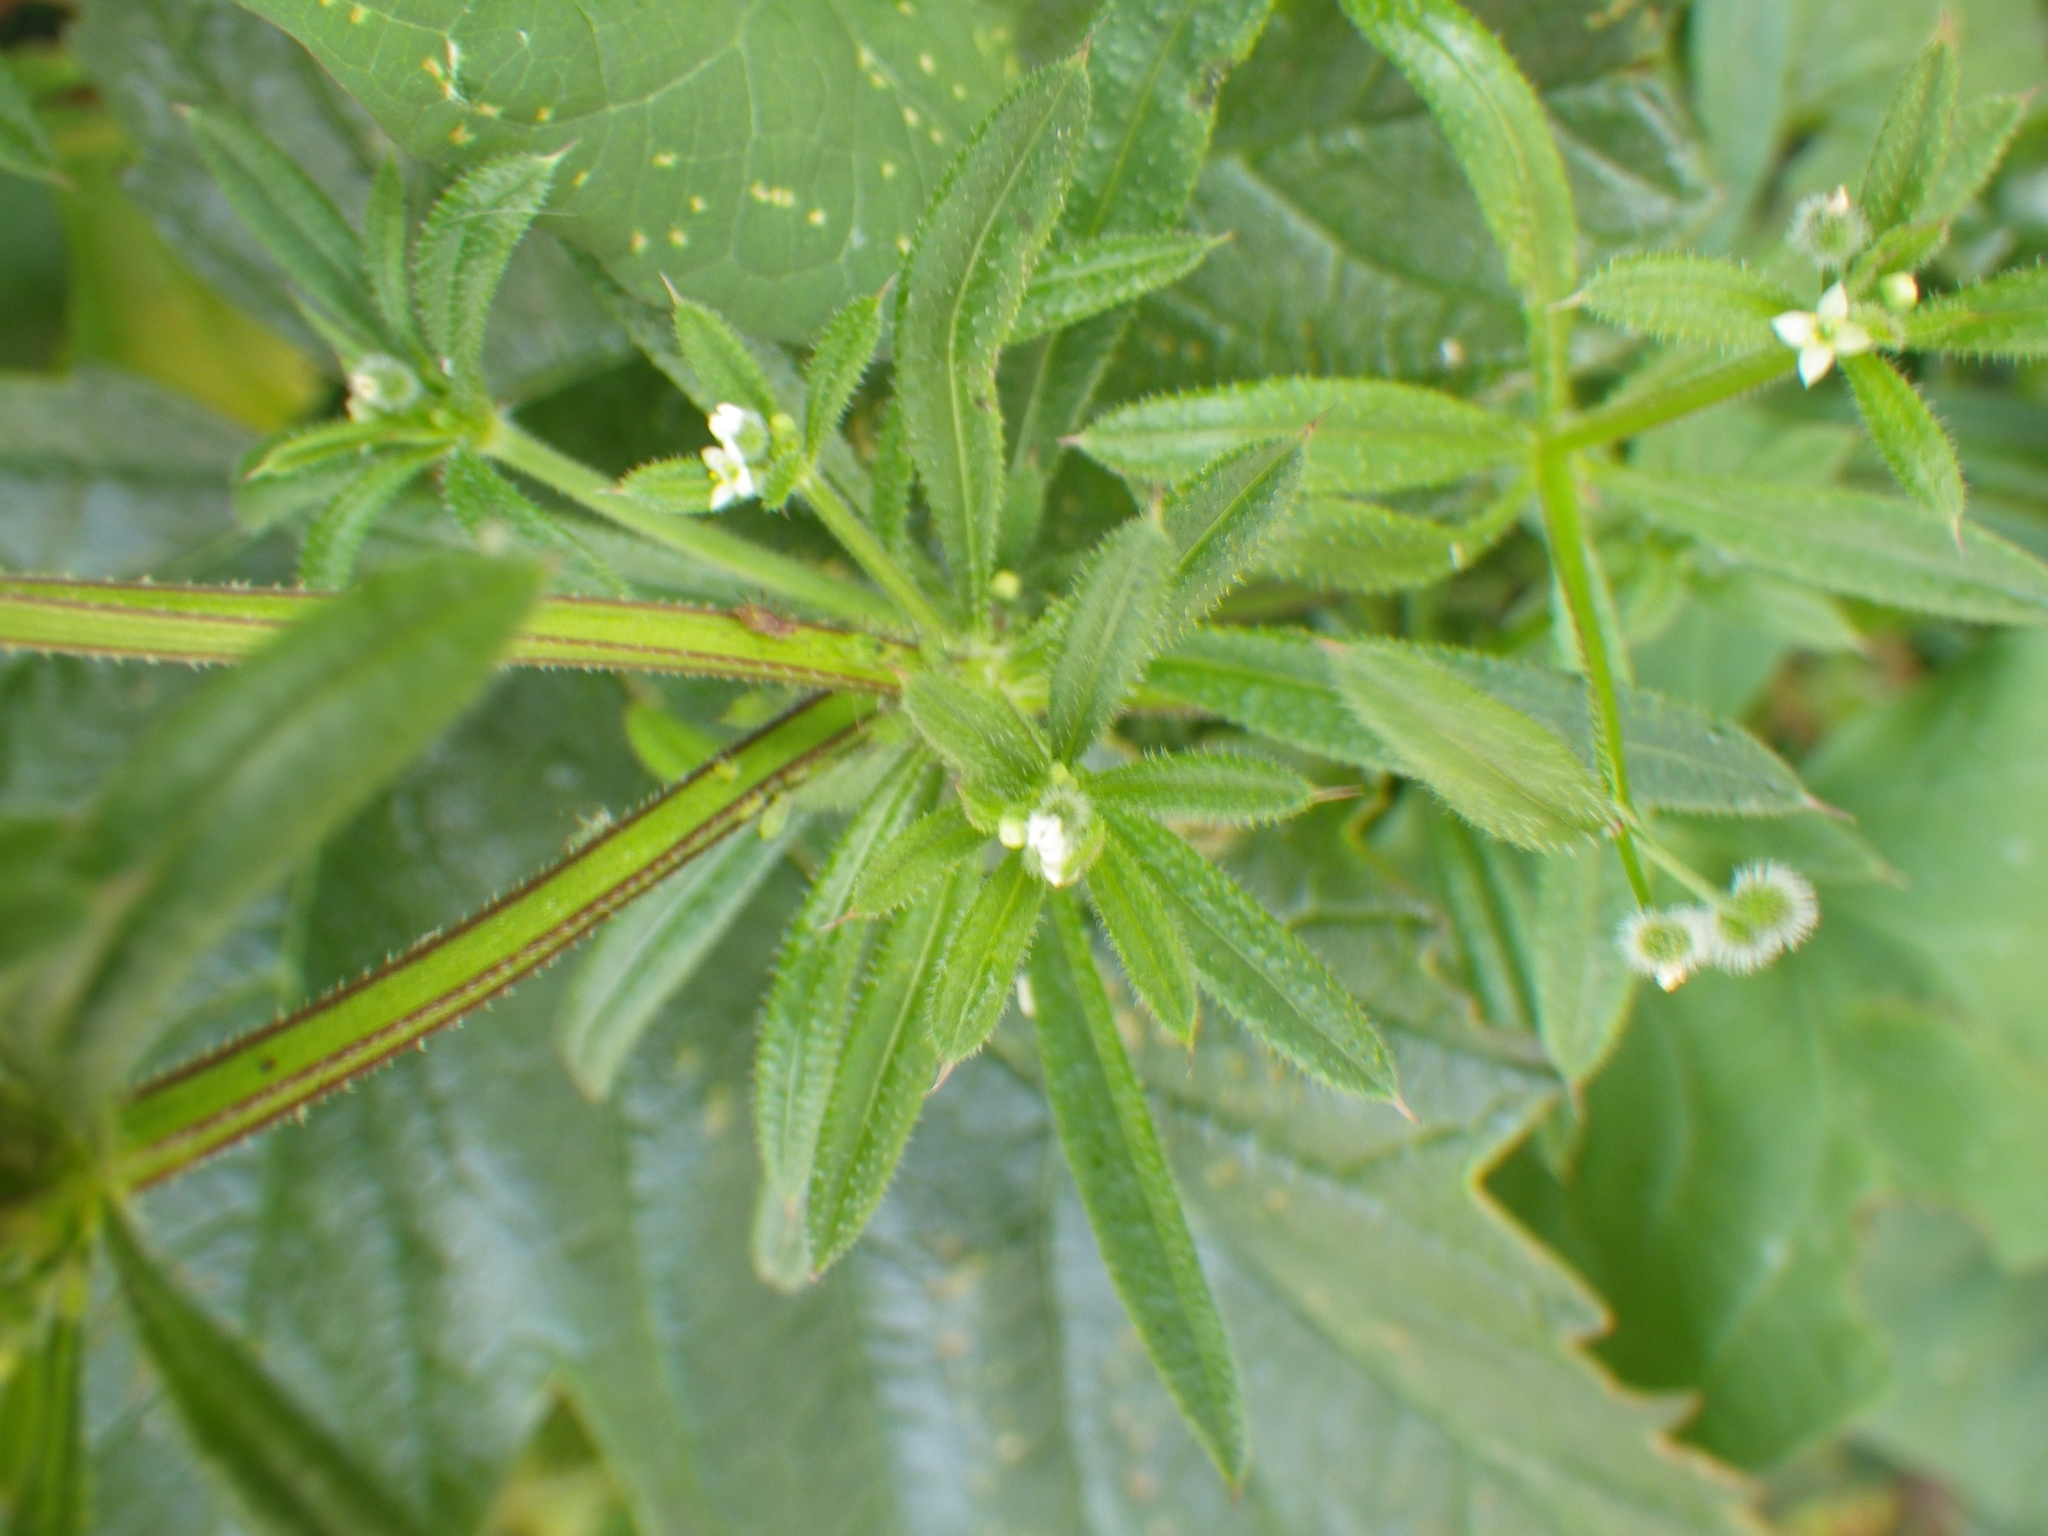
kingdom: Plantae
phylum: Tracheophyta
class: Magnoliopsida
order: Gentianales
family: Rubiaceae
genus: Galium
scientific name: Galium aparine
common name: Cleavers
